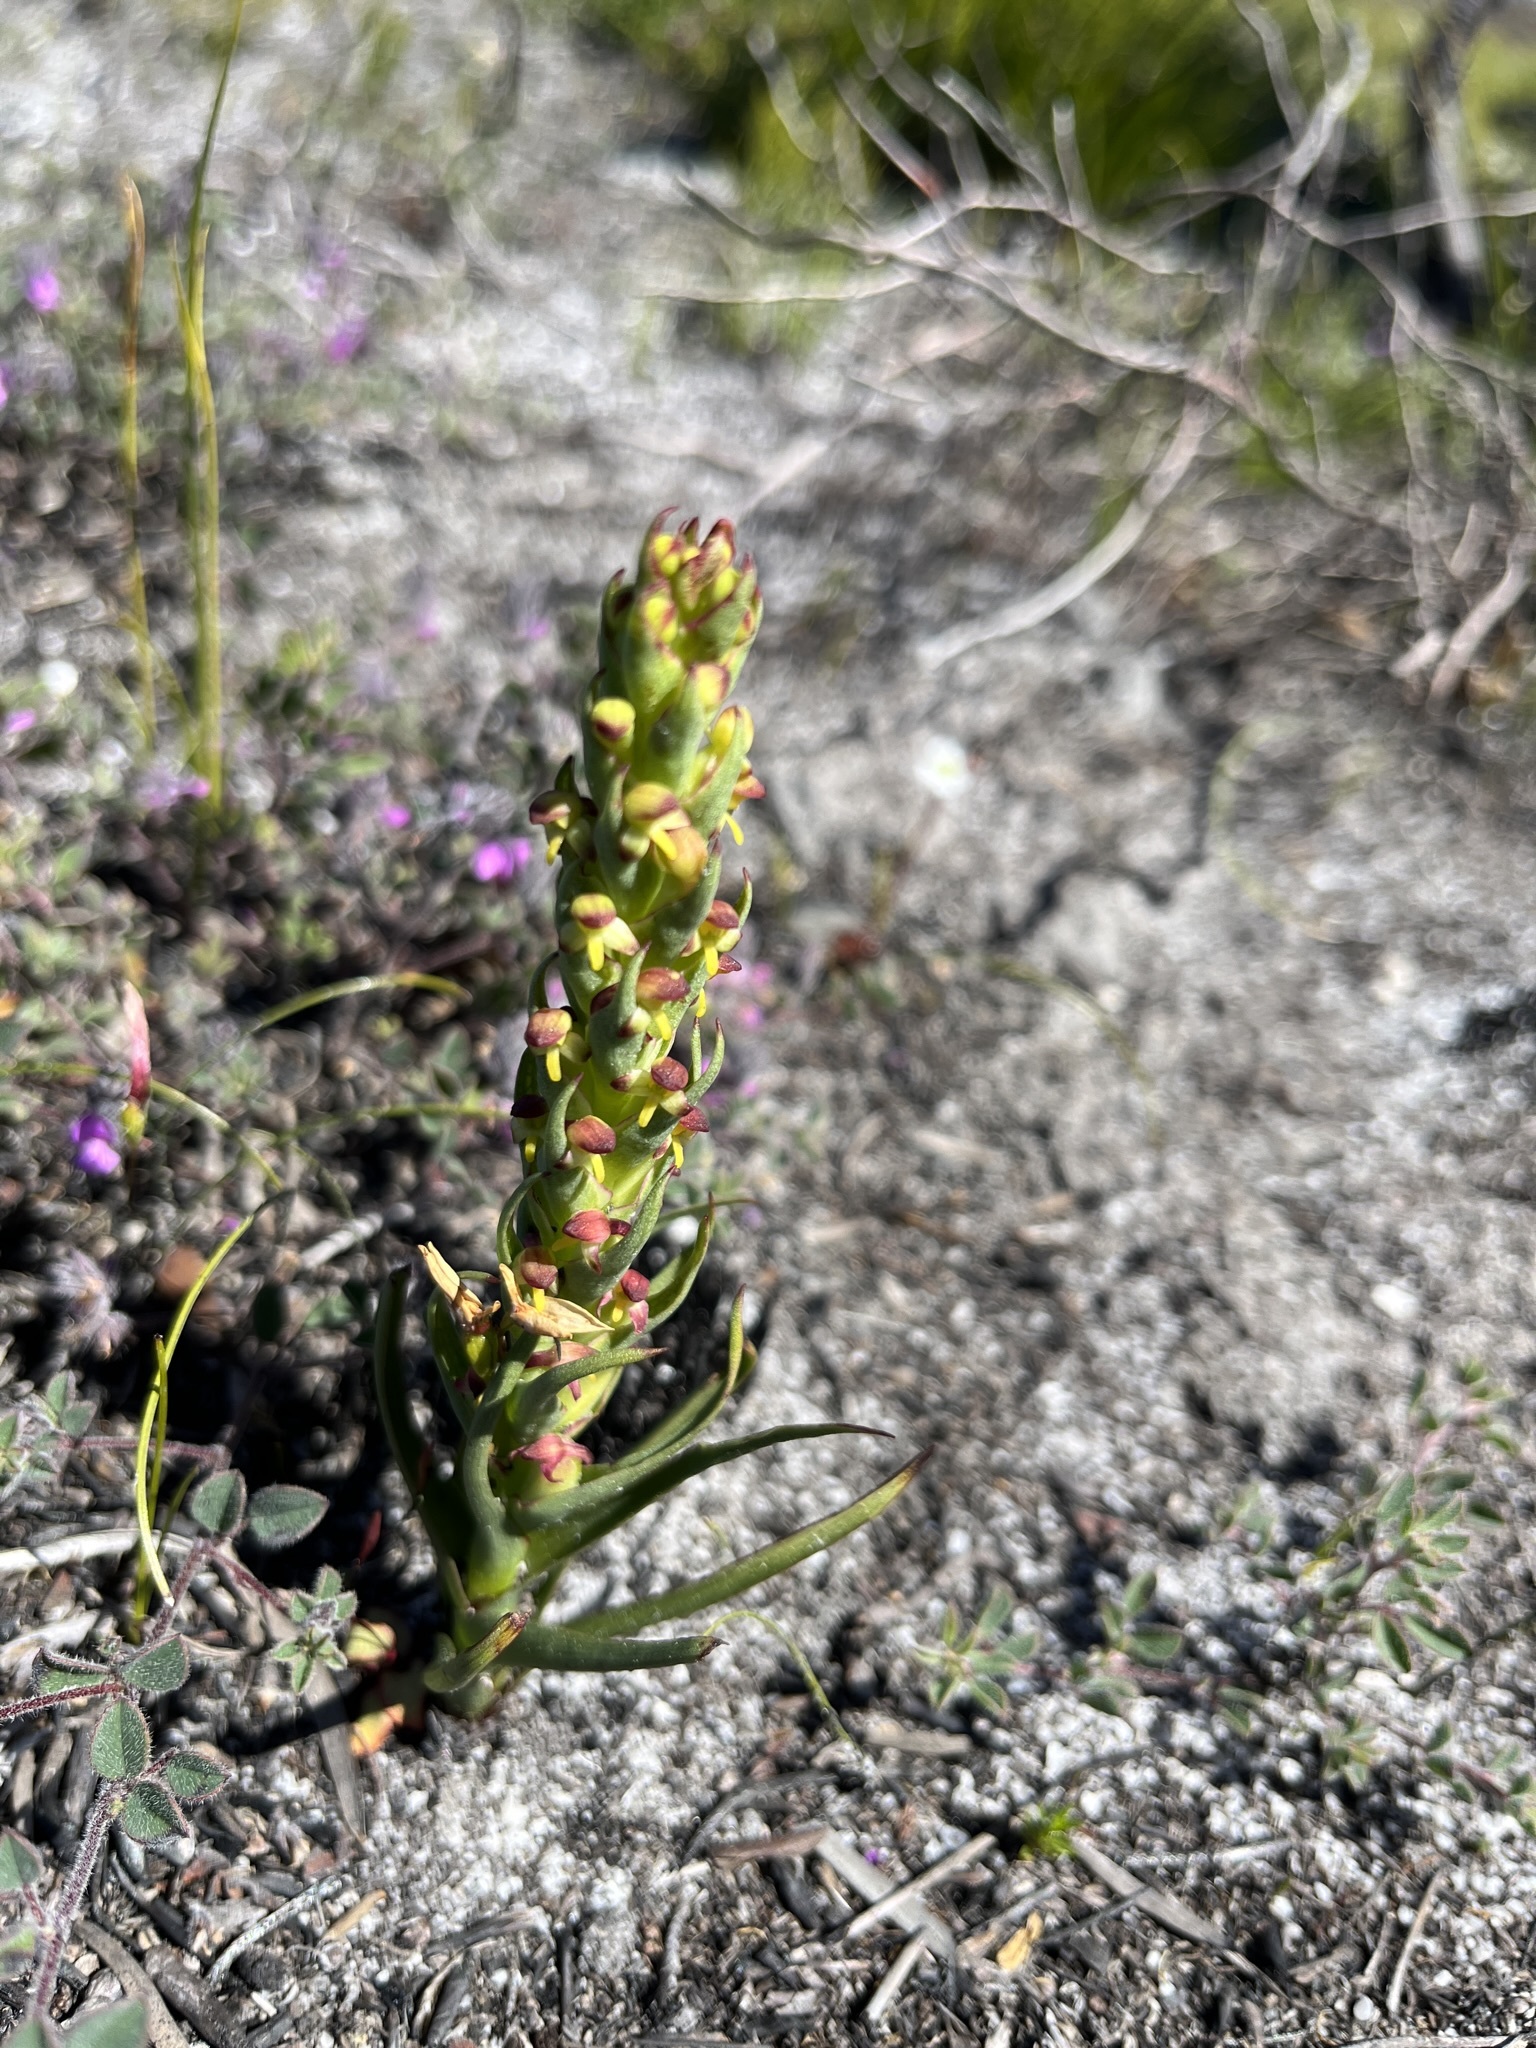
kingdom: Plantae
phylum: Tracheophyta
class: Liliopsida
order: Asparagales
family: Orchidaceae
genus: Disa
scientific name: Disa bracteata
